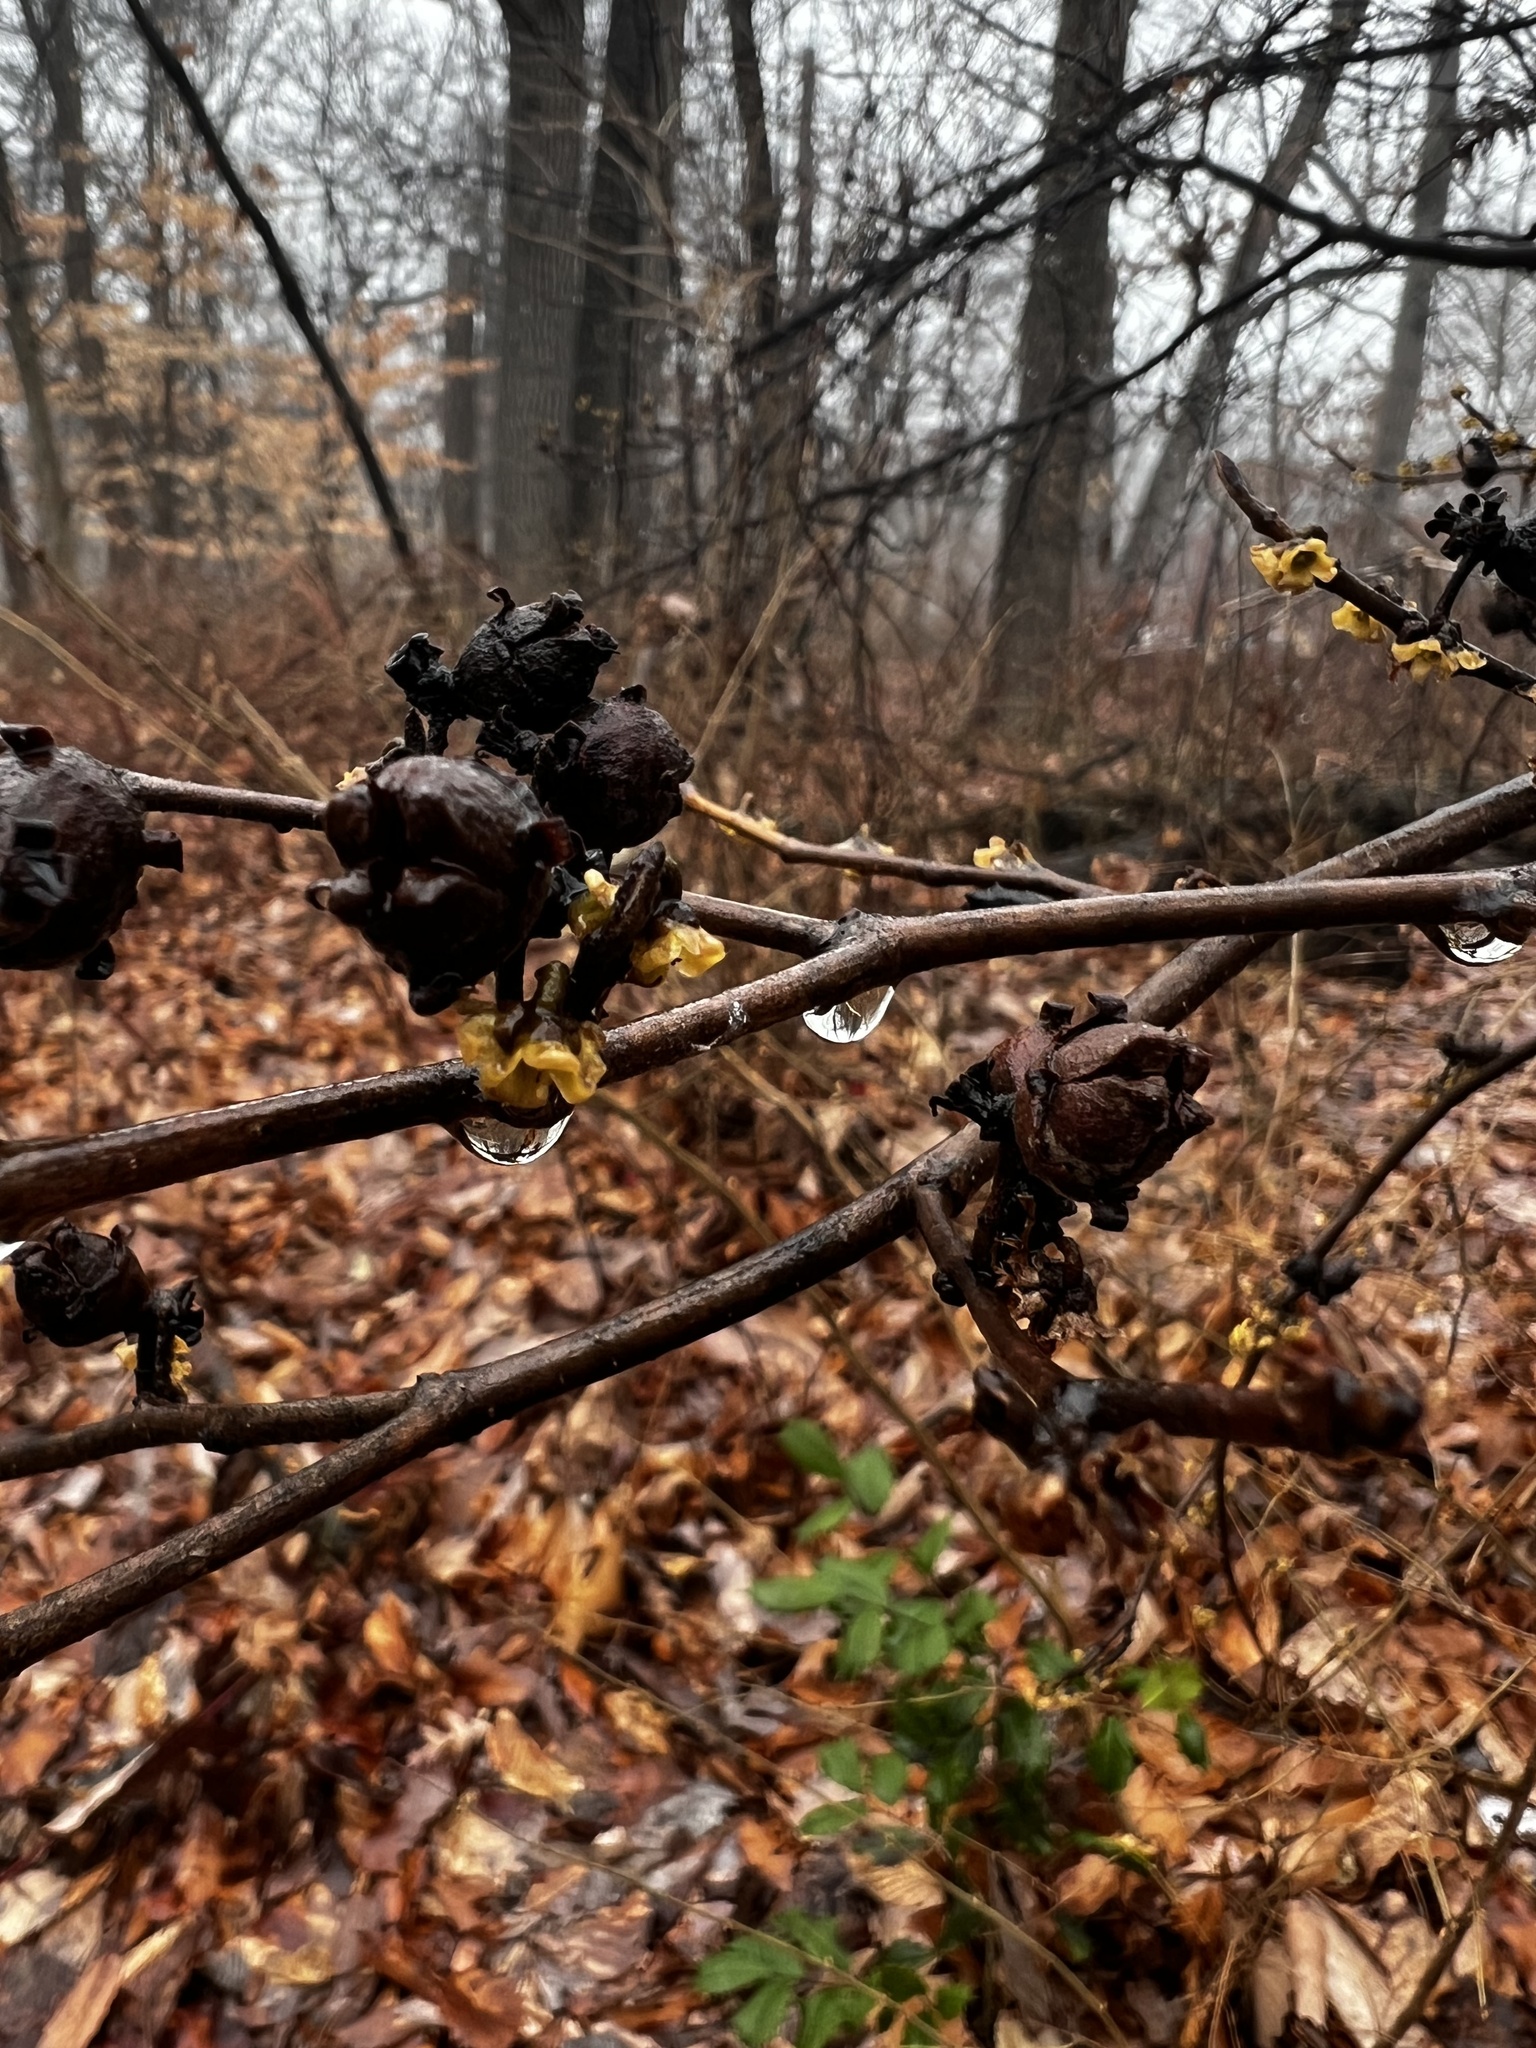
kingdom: Plantae
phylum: Tracheophyta
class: Magnoliopsida
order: Saxifragales
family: Hamamelidaceae
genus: Hamamelis
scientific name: Hamamelis virginiana
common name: Witch-hazel
